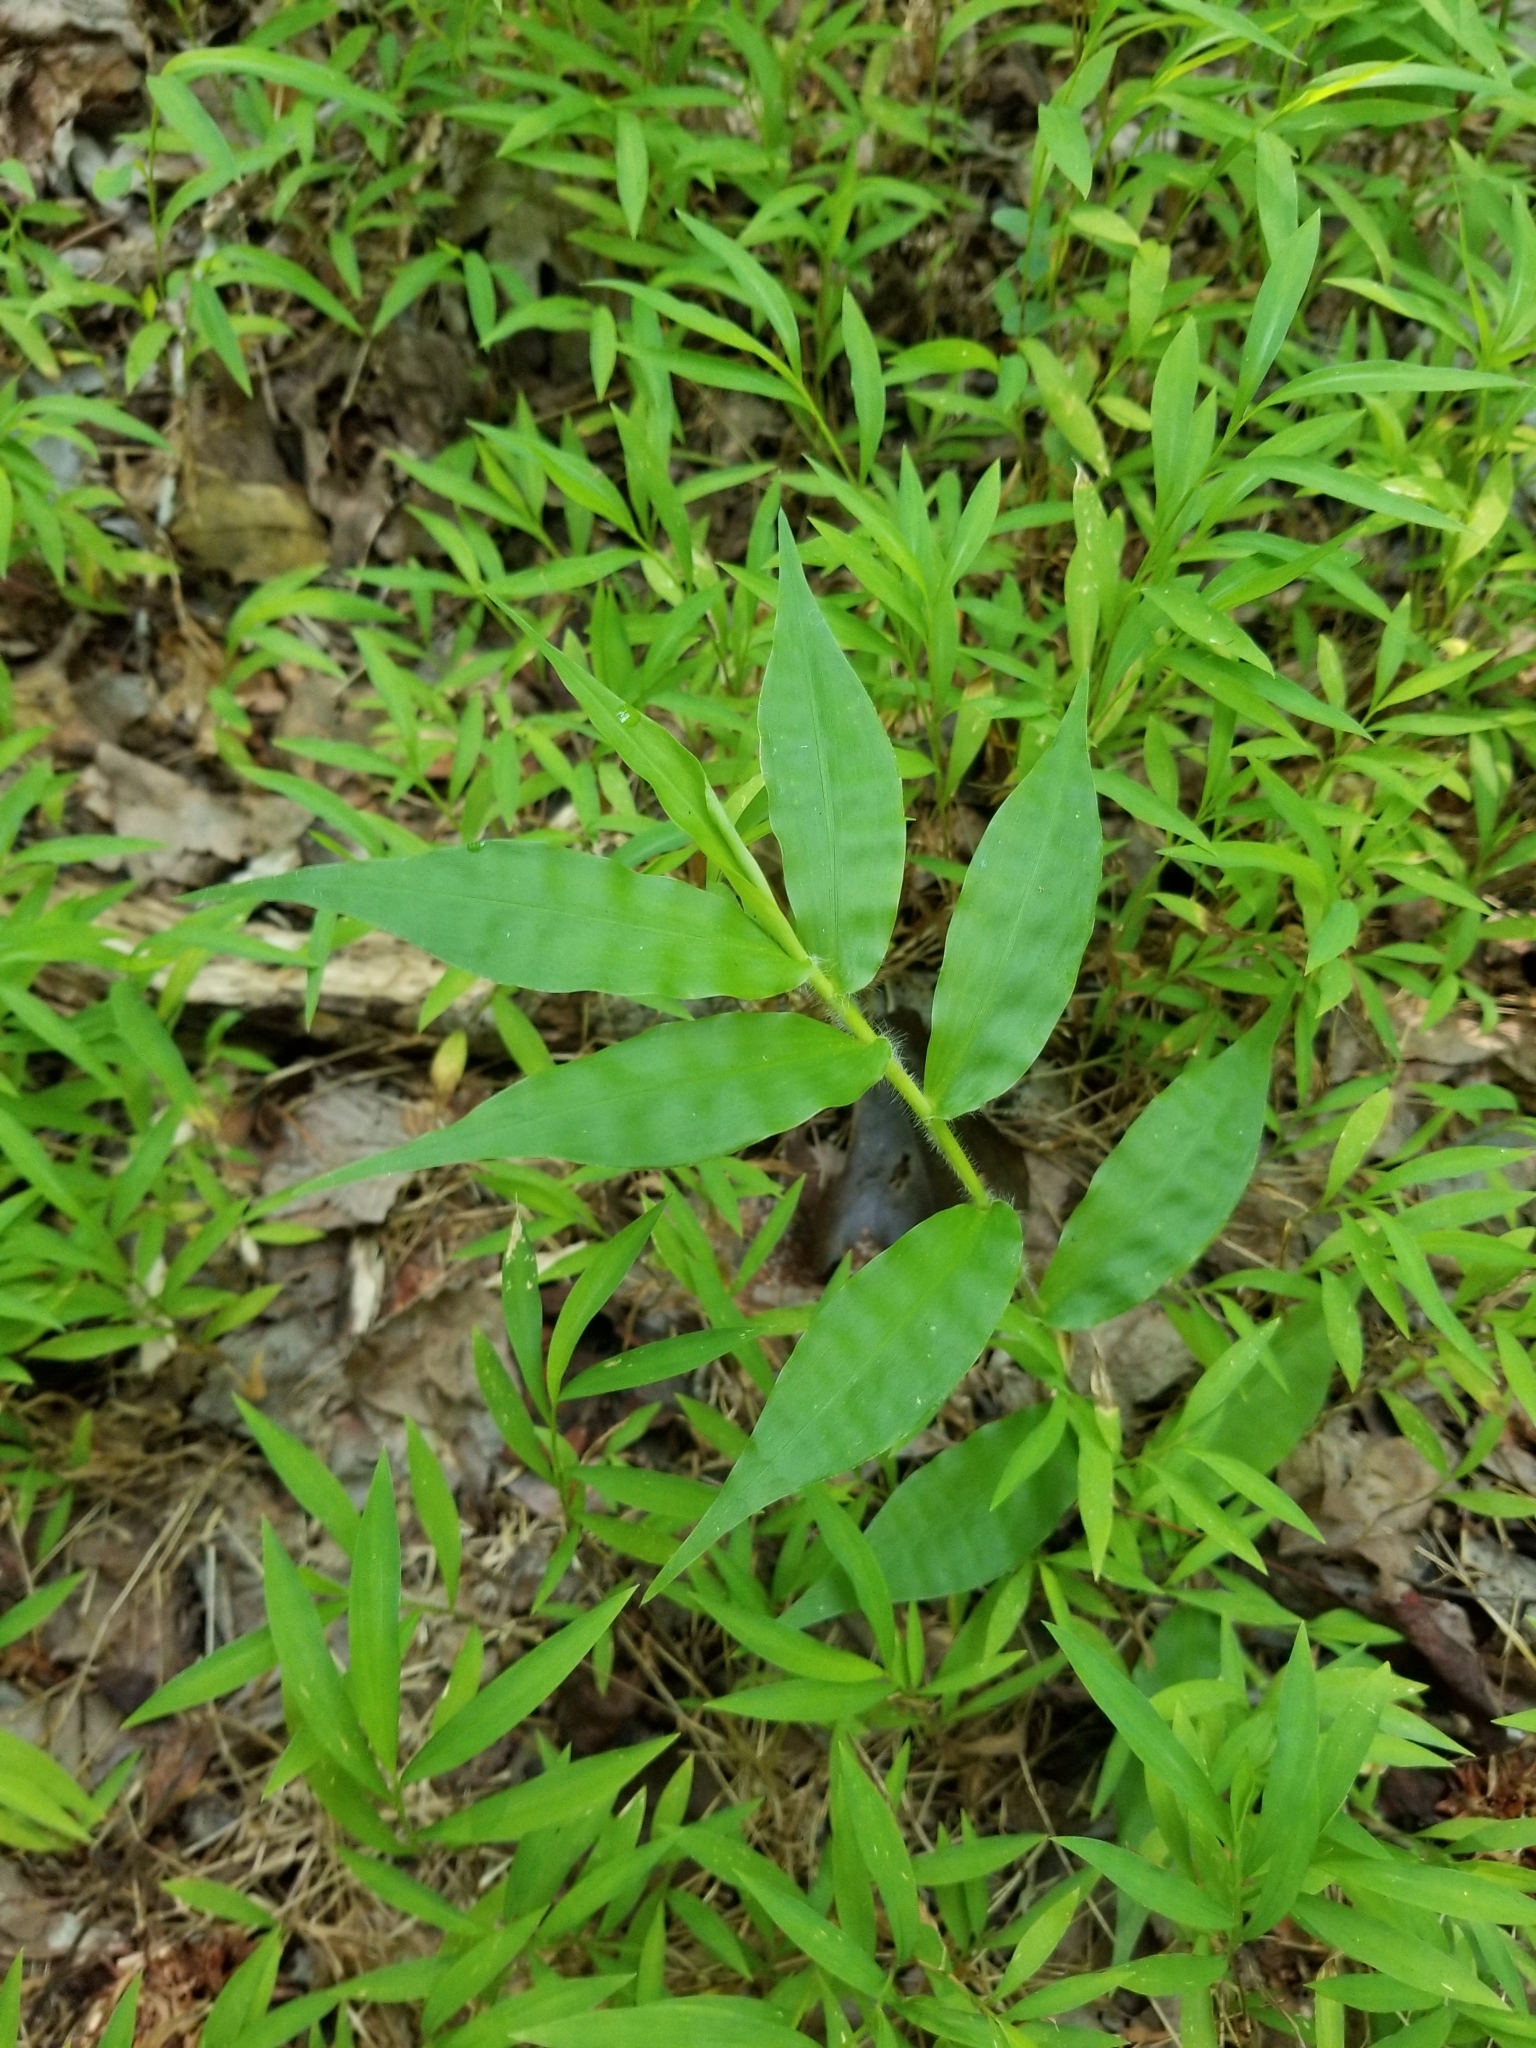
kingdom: Plantae
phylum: Tracheophyta
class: Liliopsida
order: Poales
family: Poaceae
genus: Oplismenus
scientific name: Oplismenus undulatifolius
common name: Wavyleaf basketgrass
